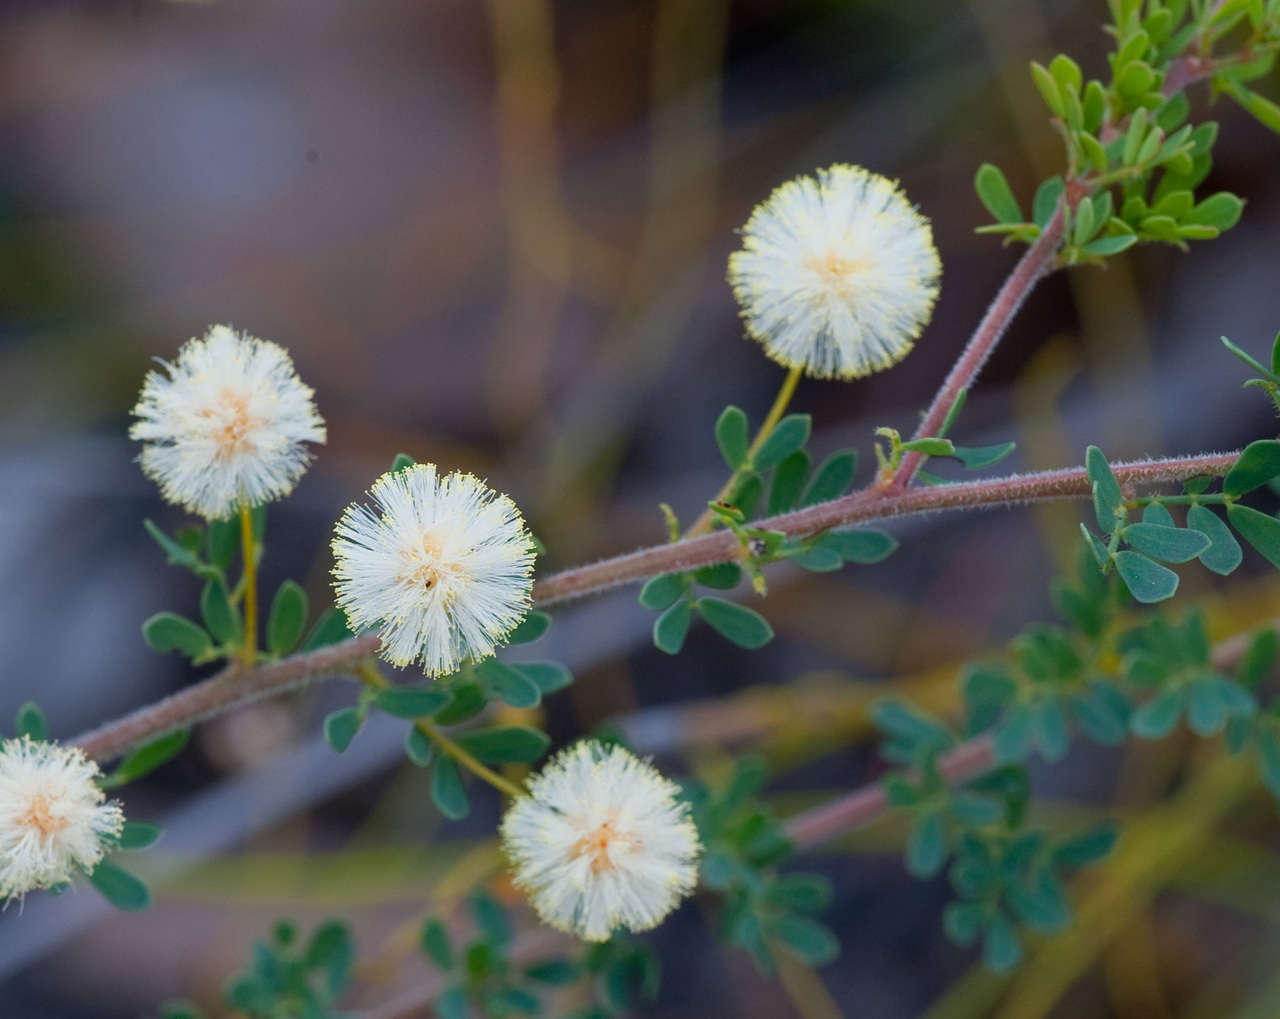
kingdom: Plantae
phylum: Tracheophyta
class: Magnoliopsida
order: Fabales
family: Fabaceae
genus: Acacia
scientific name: Acacia mitchellii
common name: Mitchell's wattle
